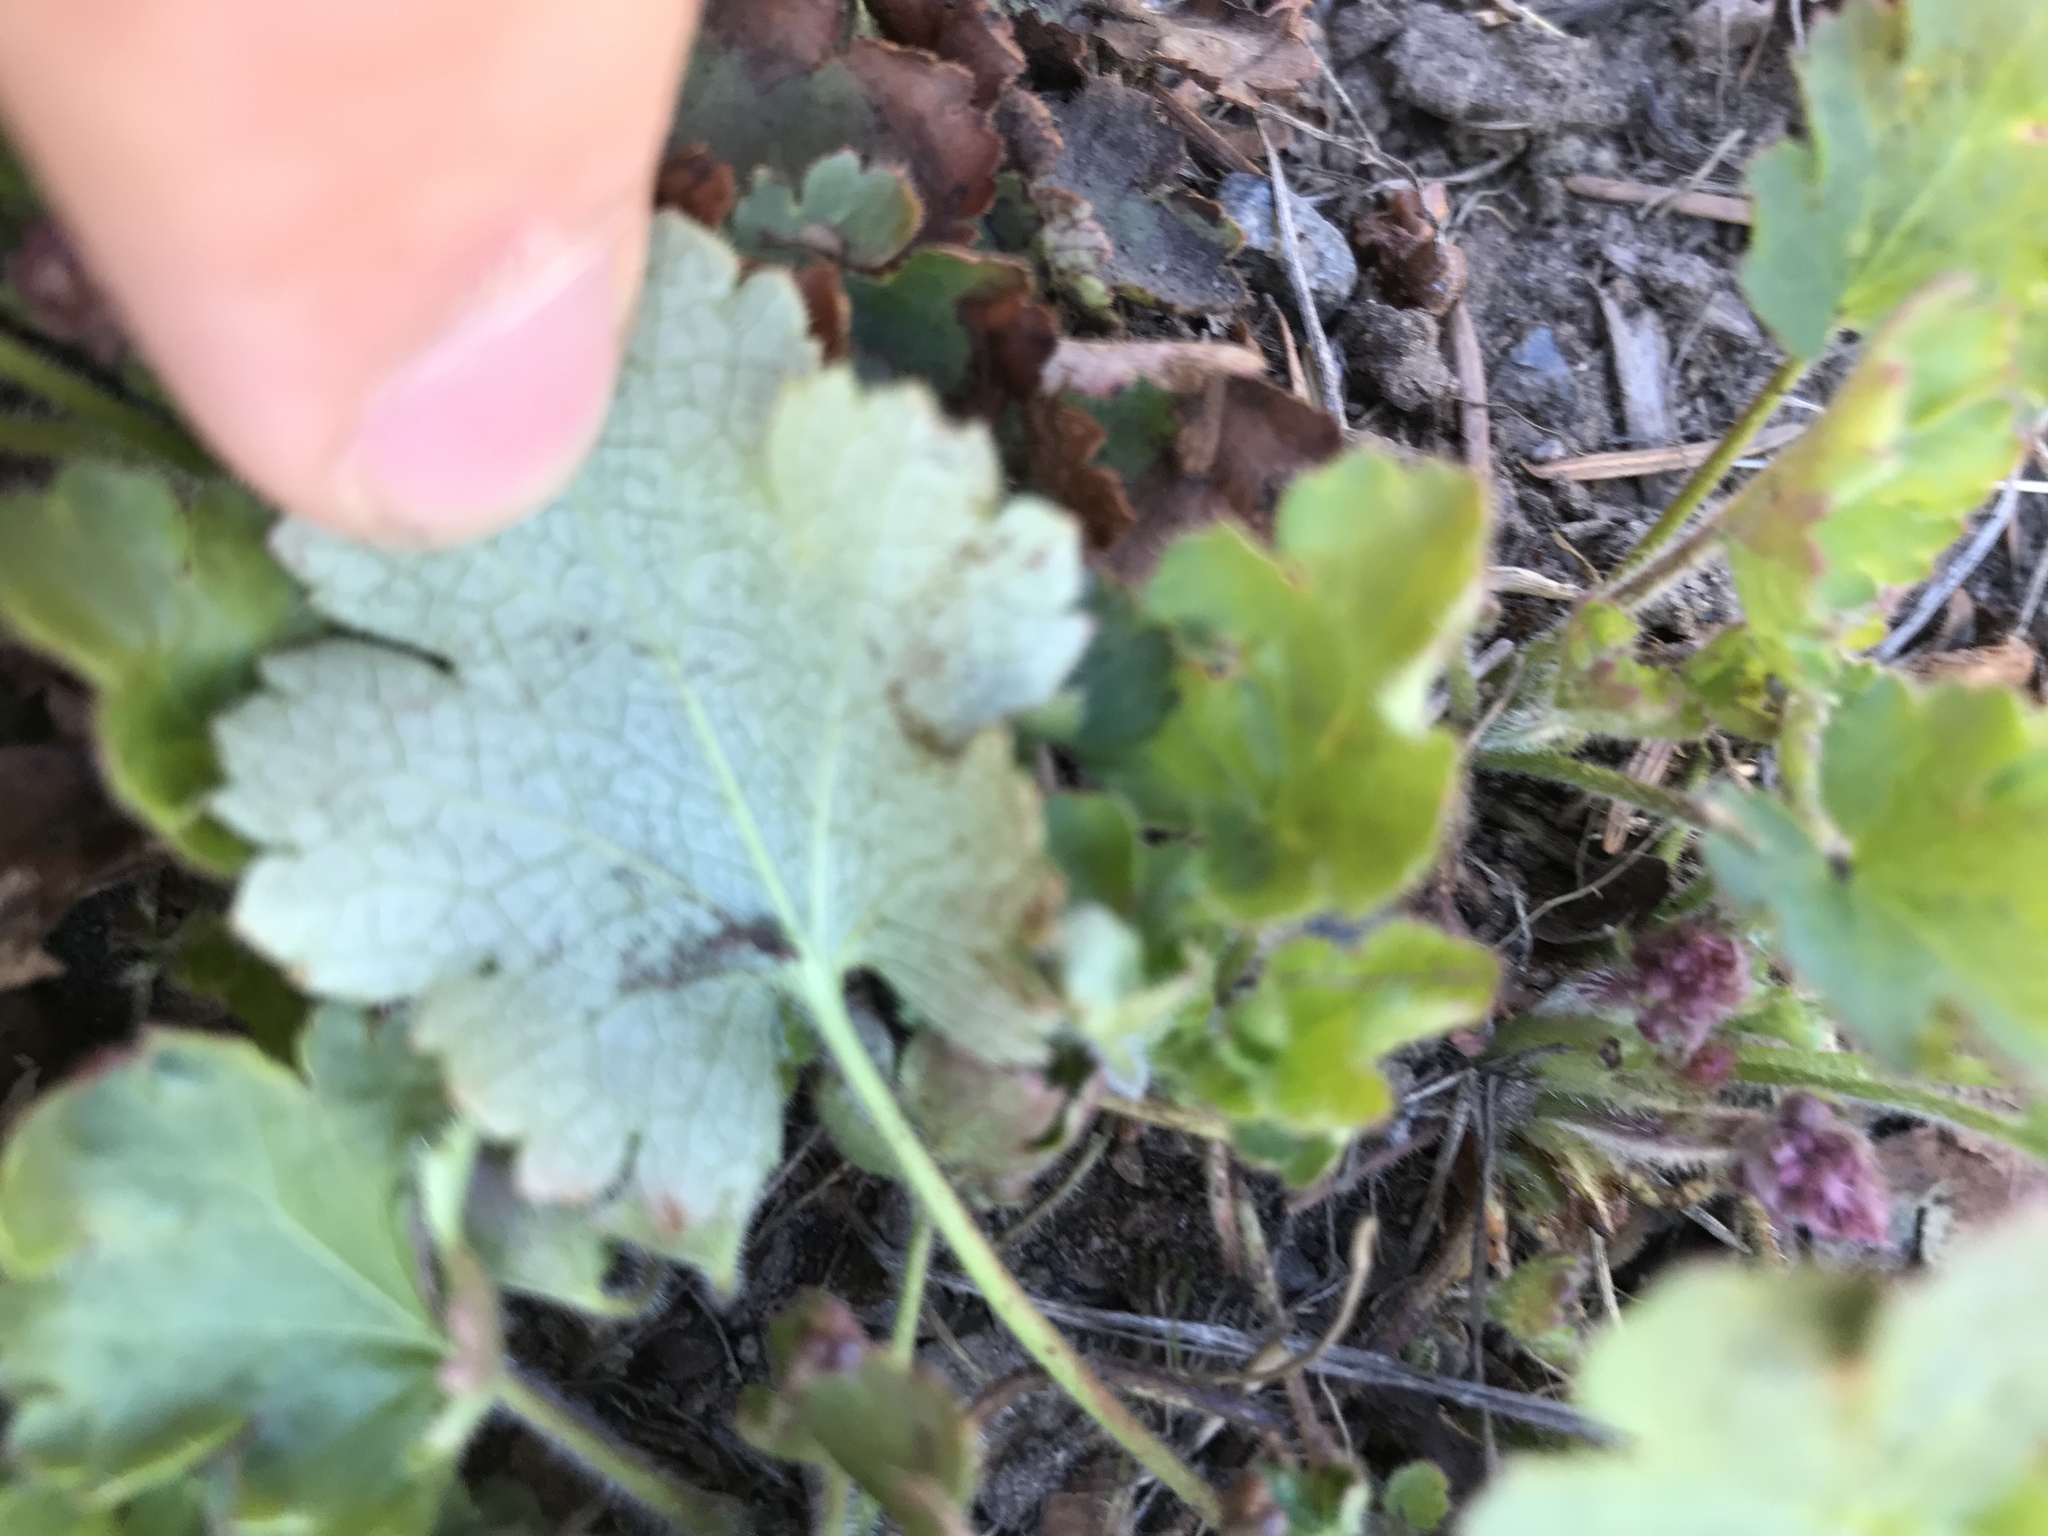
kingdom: Plantae
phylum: Tracheophyta
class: Magnoliopsida
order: Saxifragales
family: Saxifragaceae
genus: Heuchera
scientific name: Heuchera cylindrica
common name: Mat alumroot
